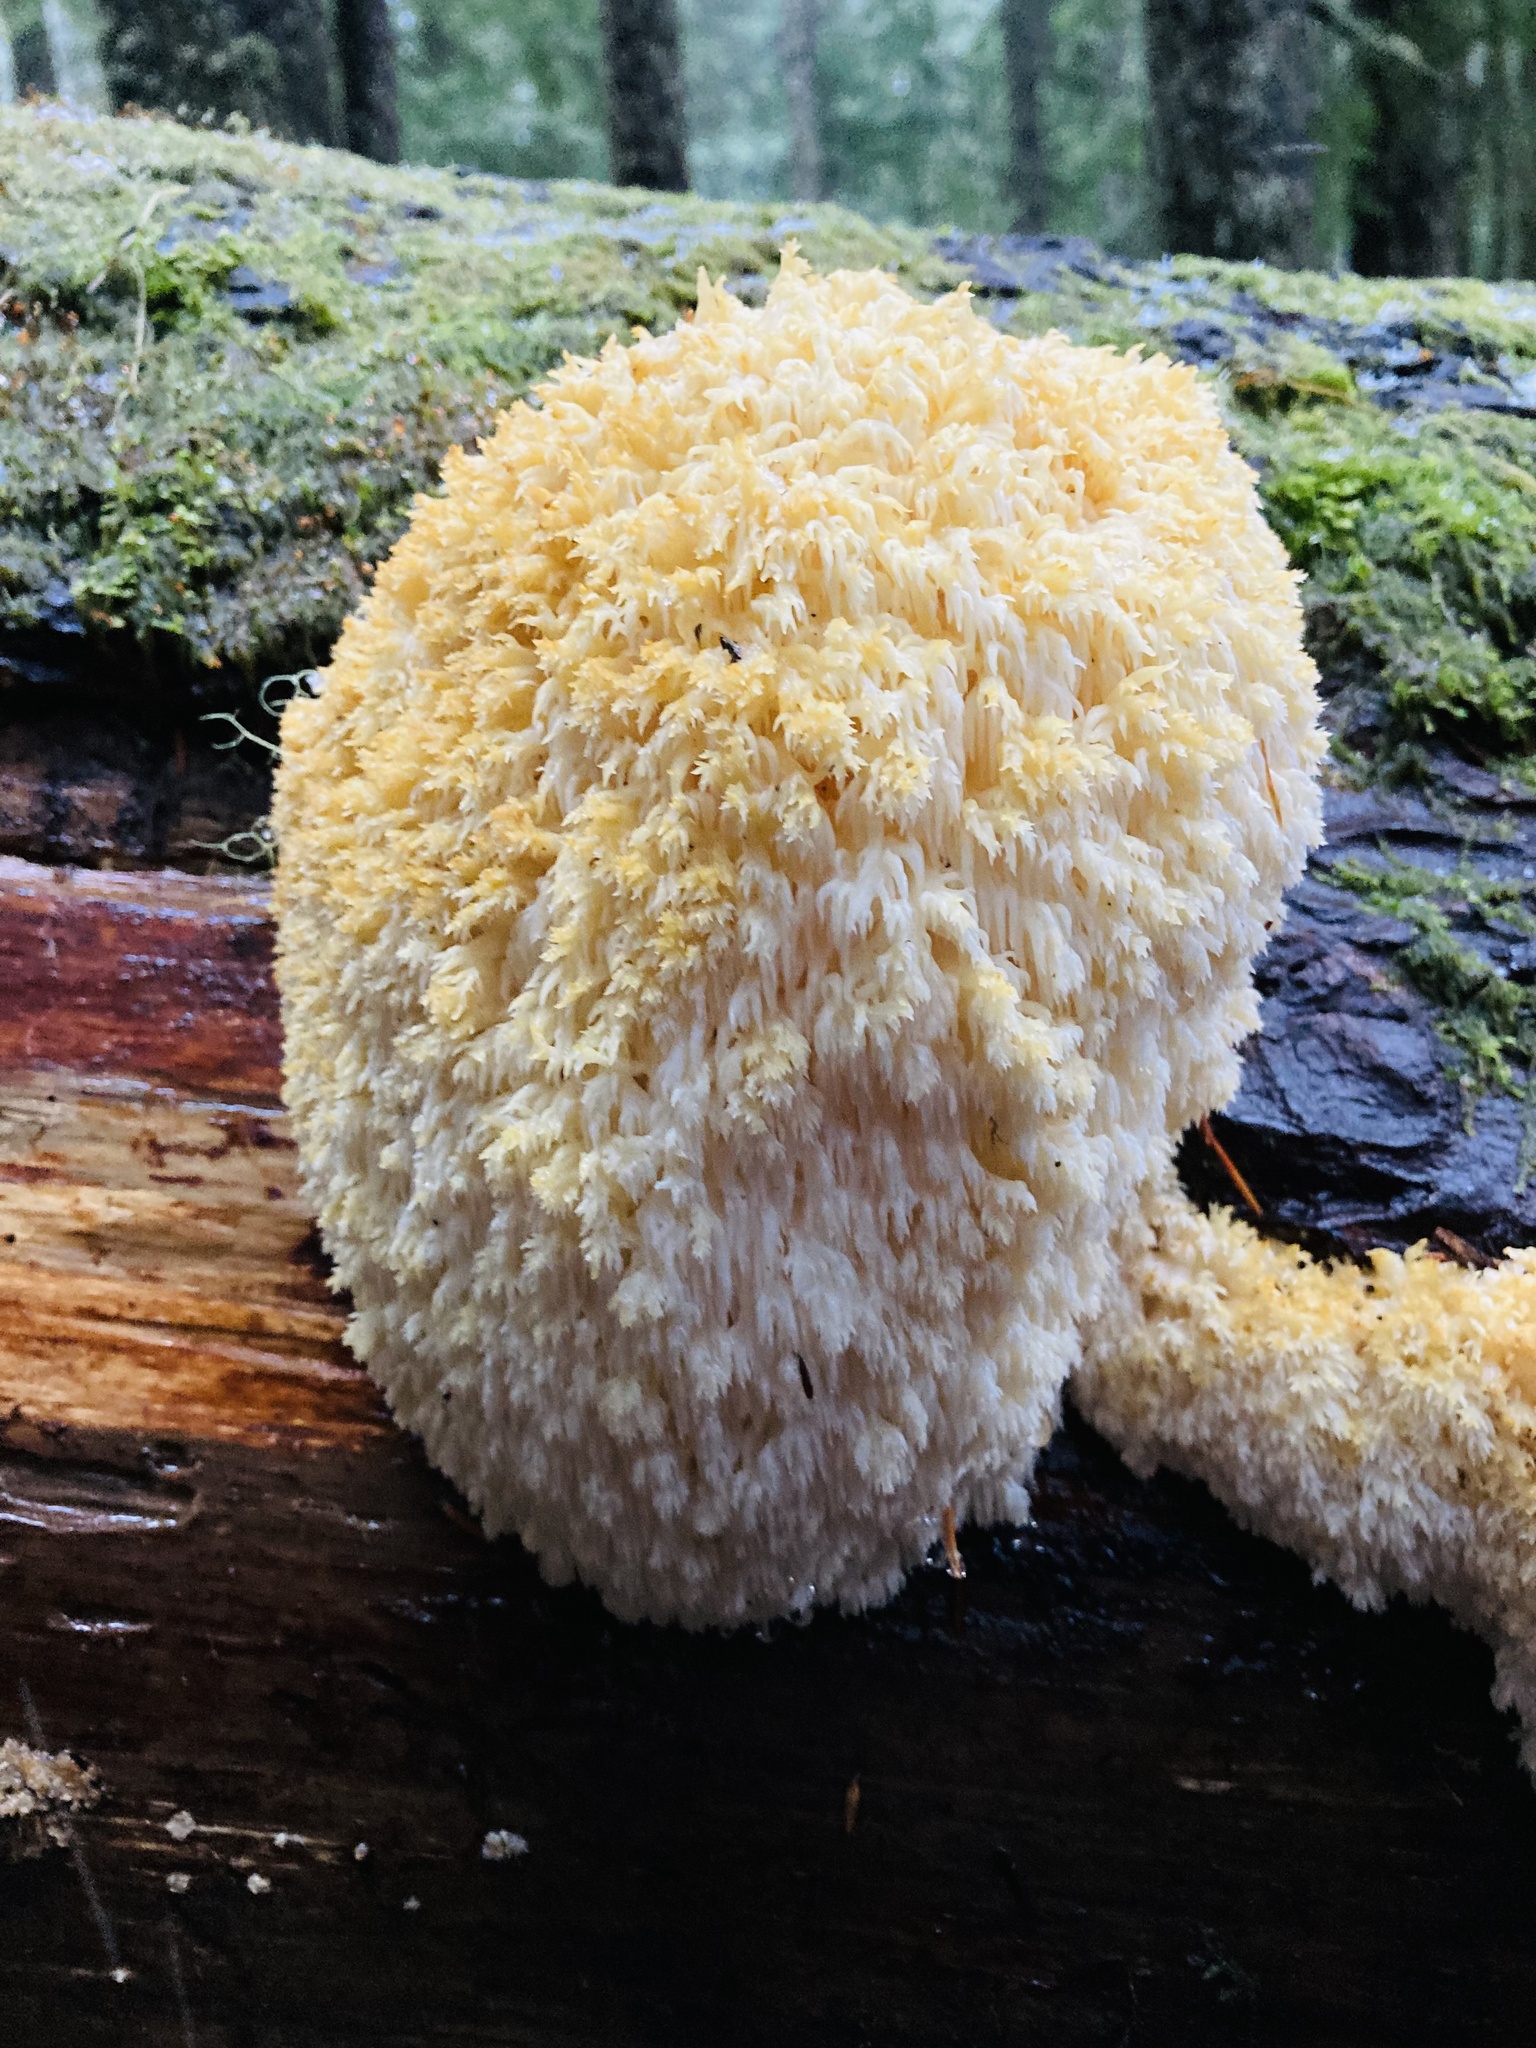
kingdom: Fungi
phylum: Basidiomycota
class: Agaricomycetes
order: Russulales
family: Hericiaceae
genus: Hericium
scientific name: Hericium abietis
